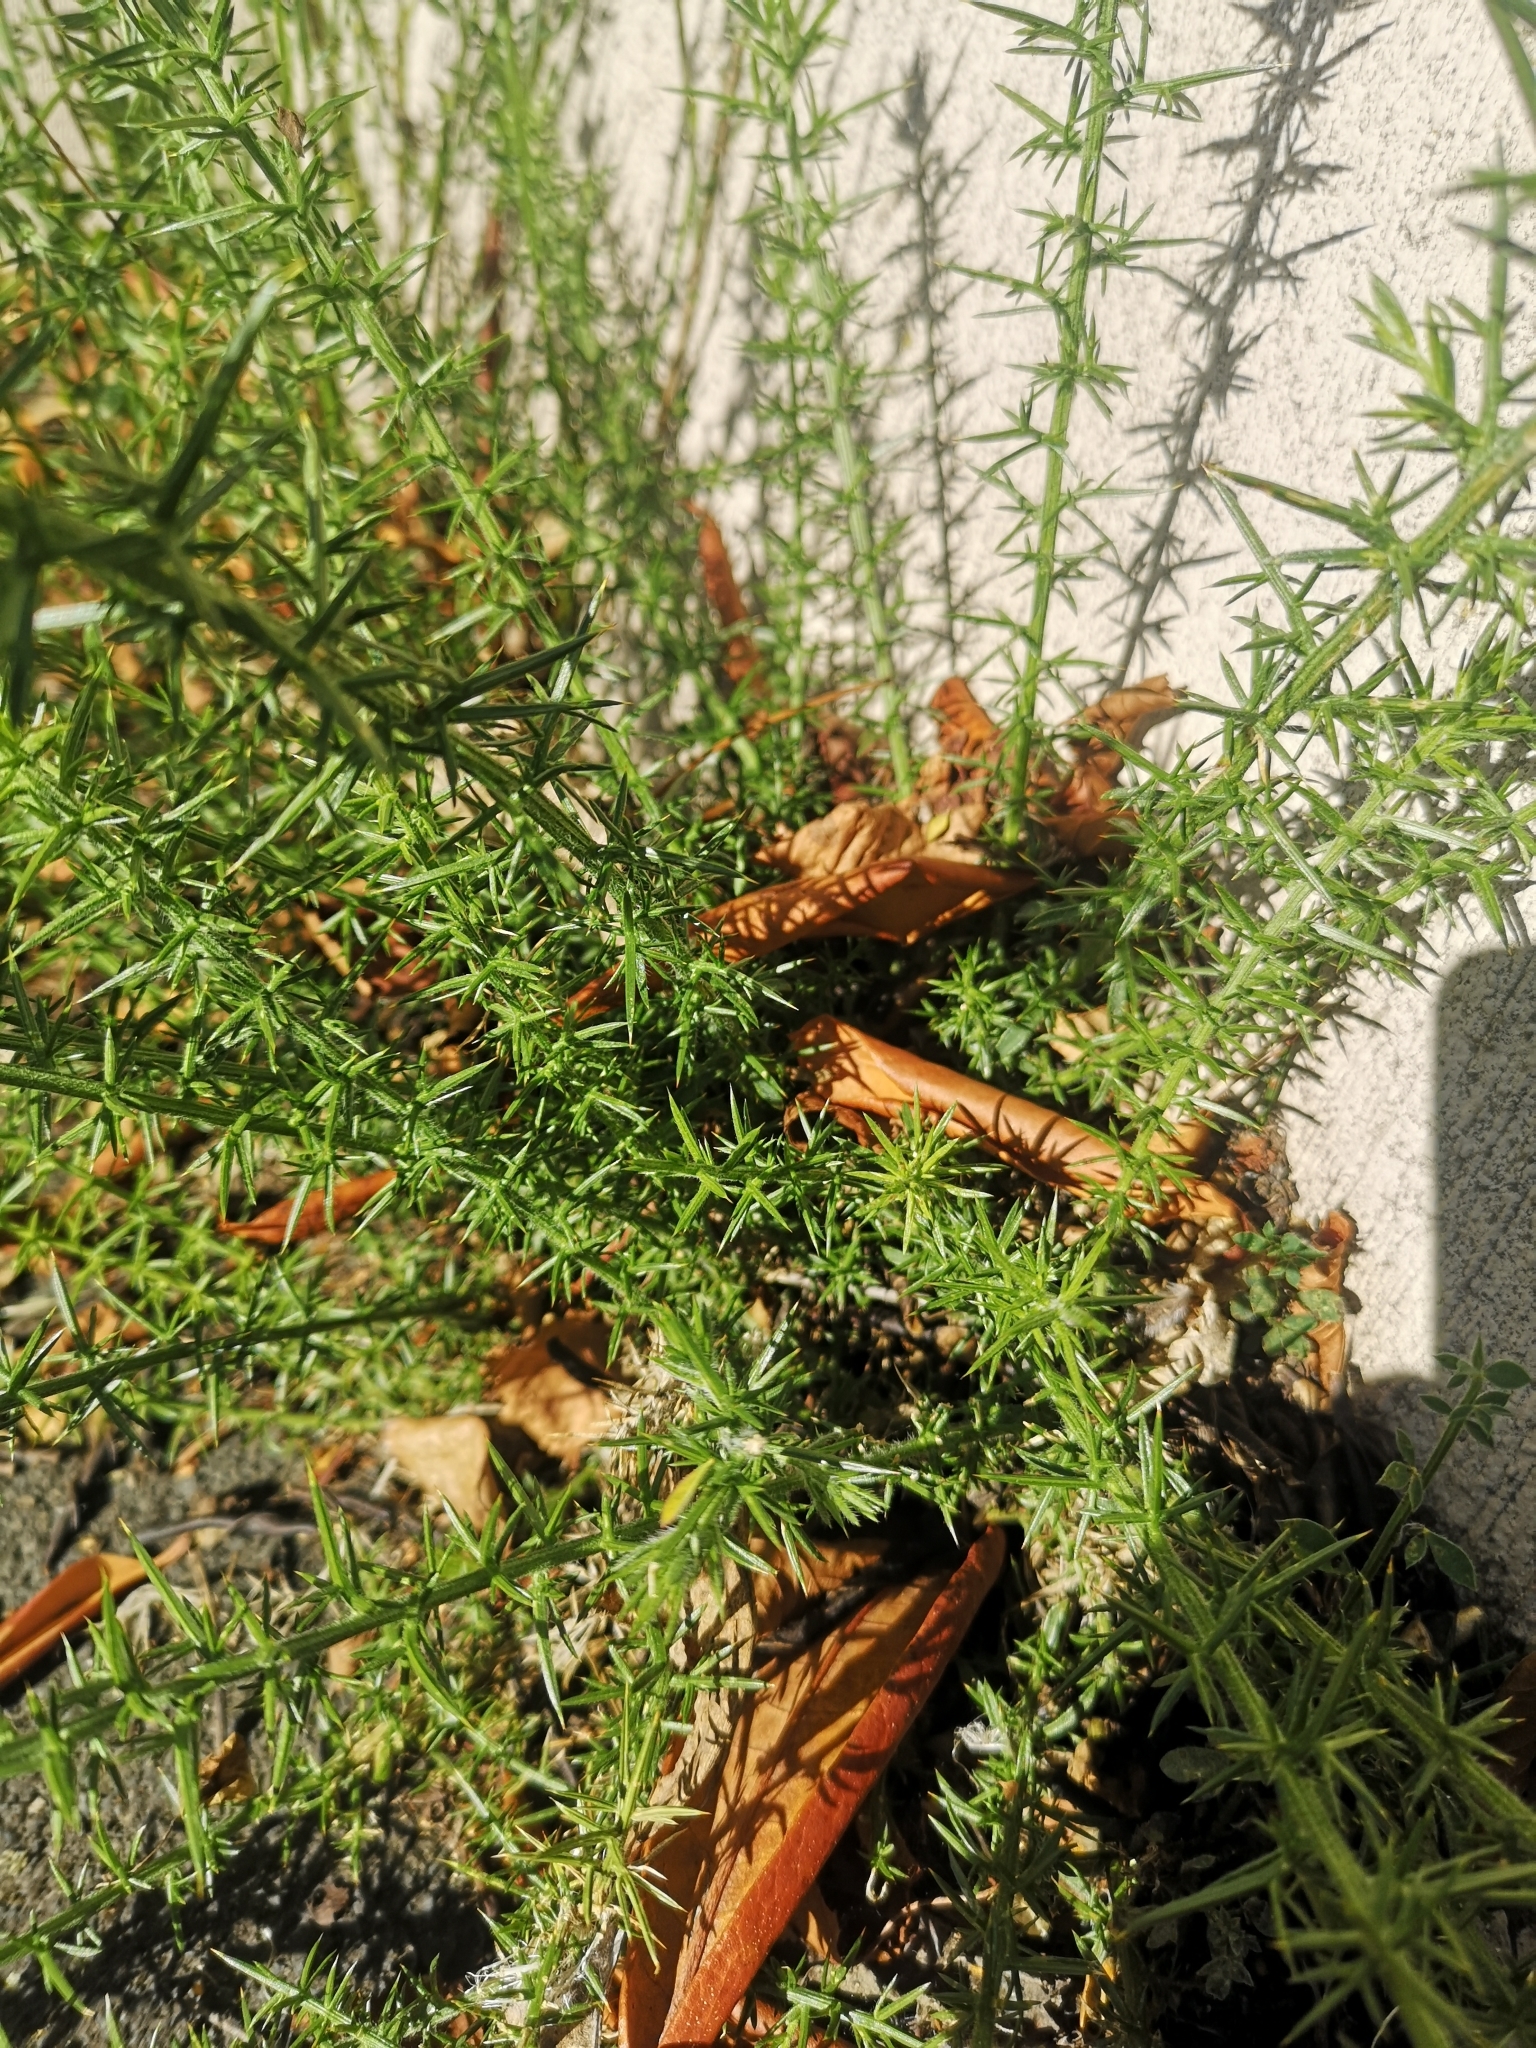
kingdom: Plantae
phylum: Tracheophyta
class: Magnoliopsida
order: Fabales
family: Fabaceae
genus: Ulex
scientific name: Ulex europaeus
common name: Common gorse
